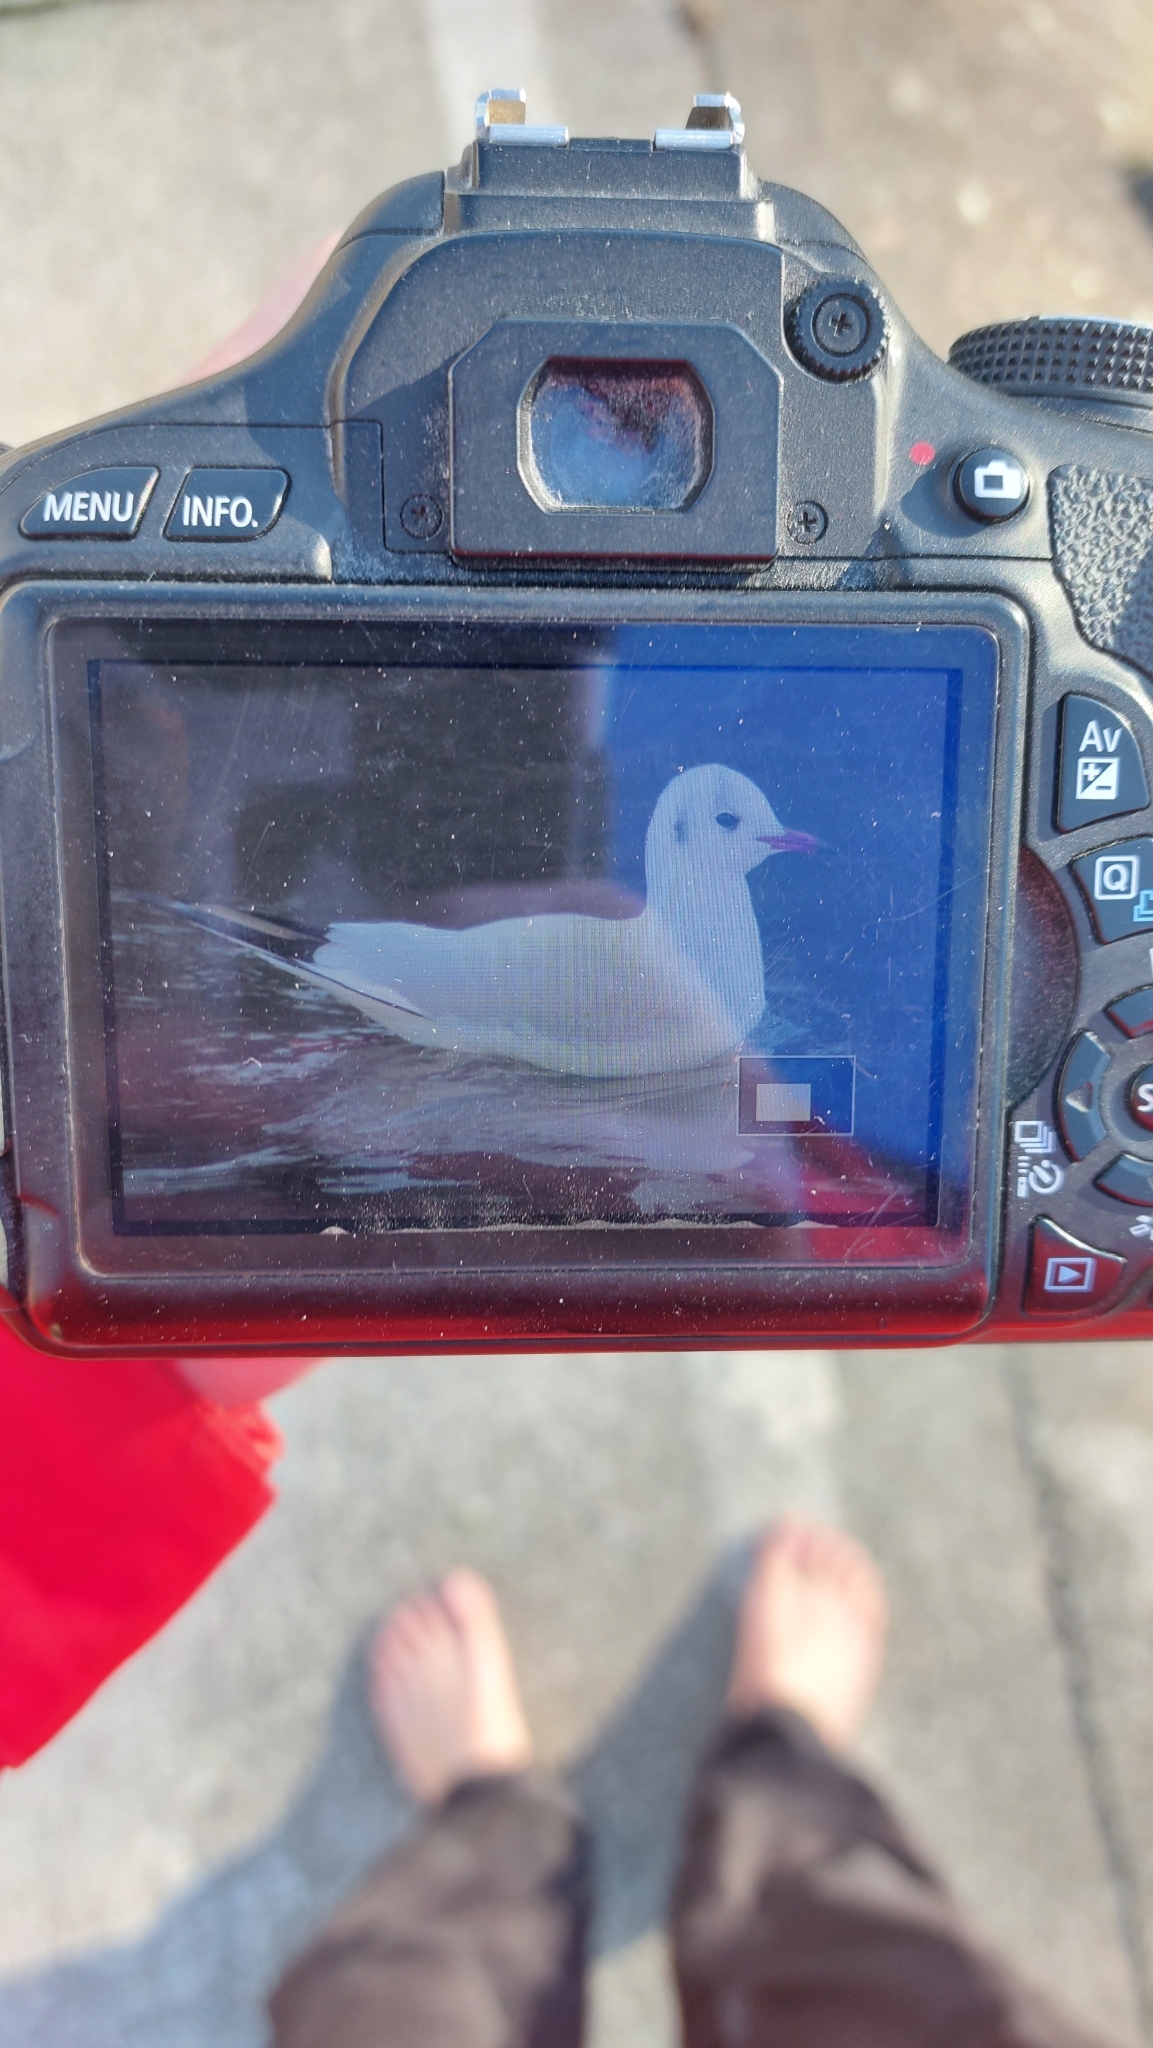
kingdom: Animalia
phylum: Chordata
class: Aves
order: Charadriiformes
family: Laridae
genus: Chroicocephalus
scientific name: Chroicocephalus ridibundus
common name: Black-headed gull
